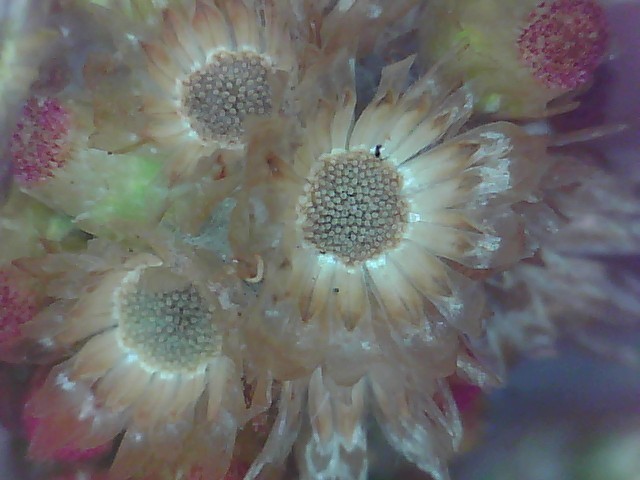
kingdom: Plantae
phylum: Tracheophyta
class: Magnoliopsida
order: Asterales
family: Asteraceae
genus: Helichrysum
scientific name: Helichrysum luteoalbum
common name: Daisy
